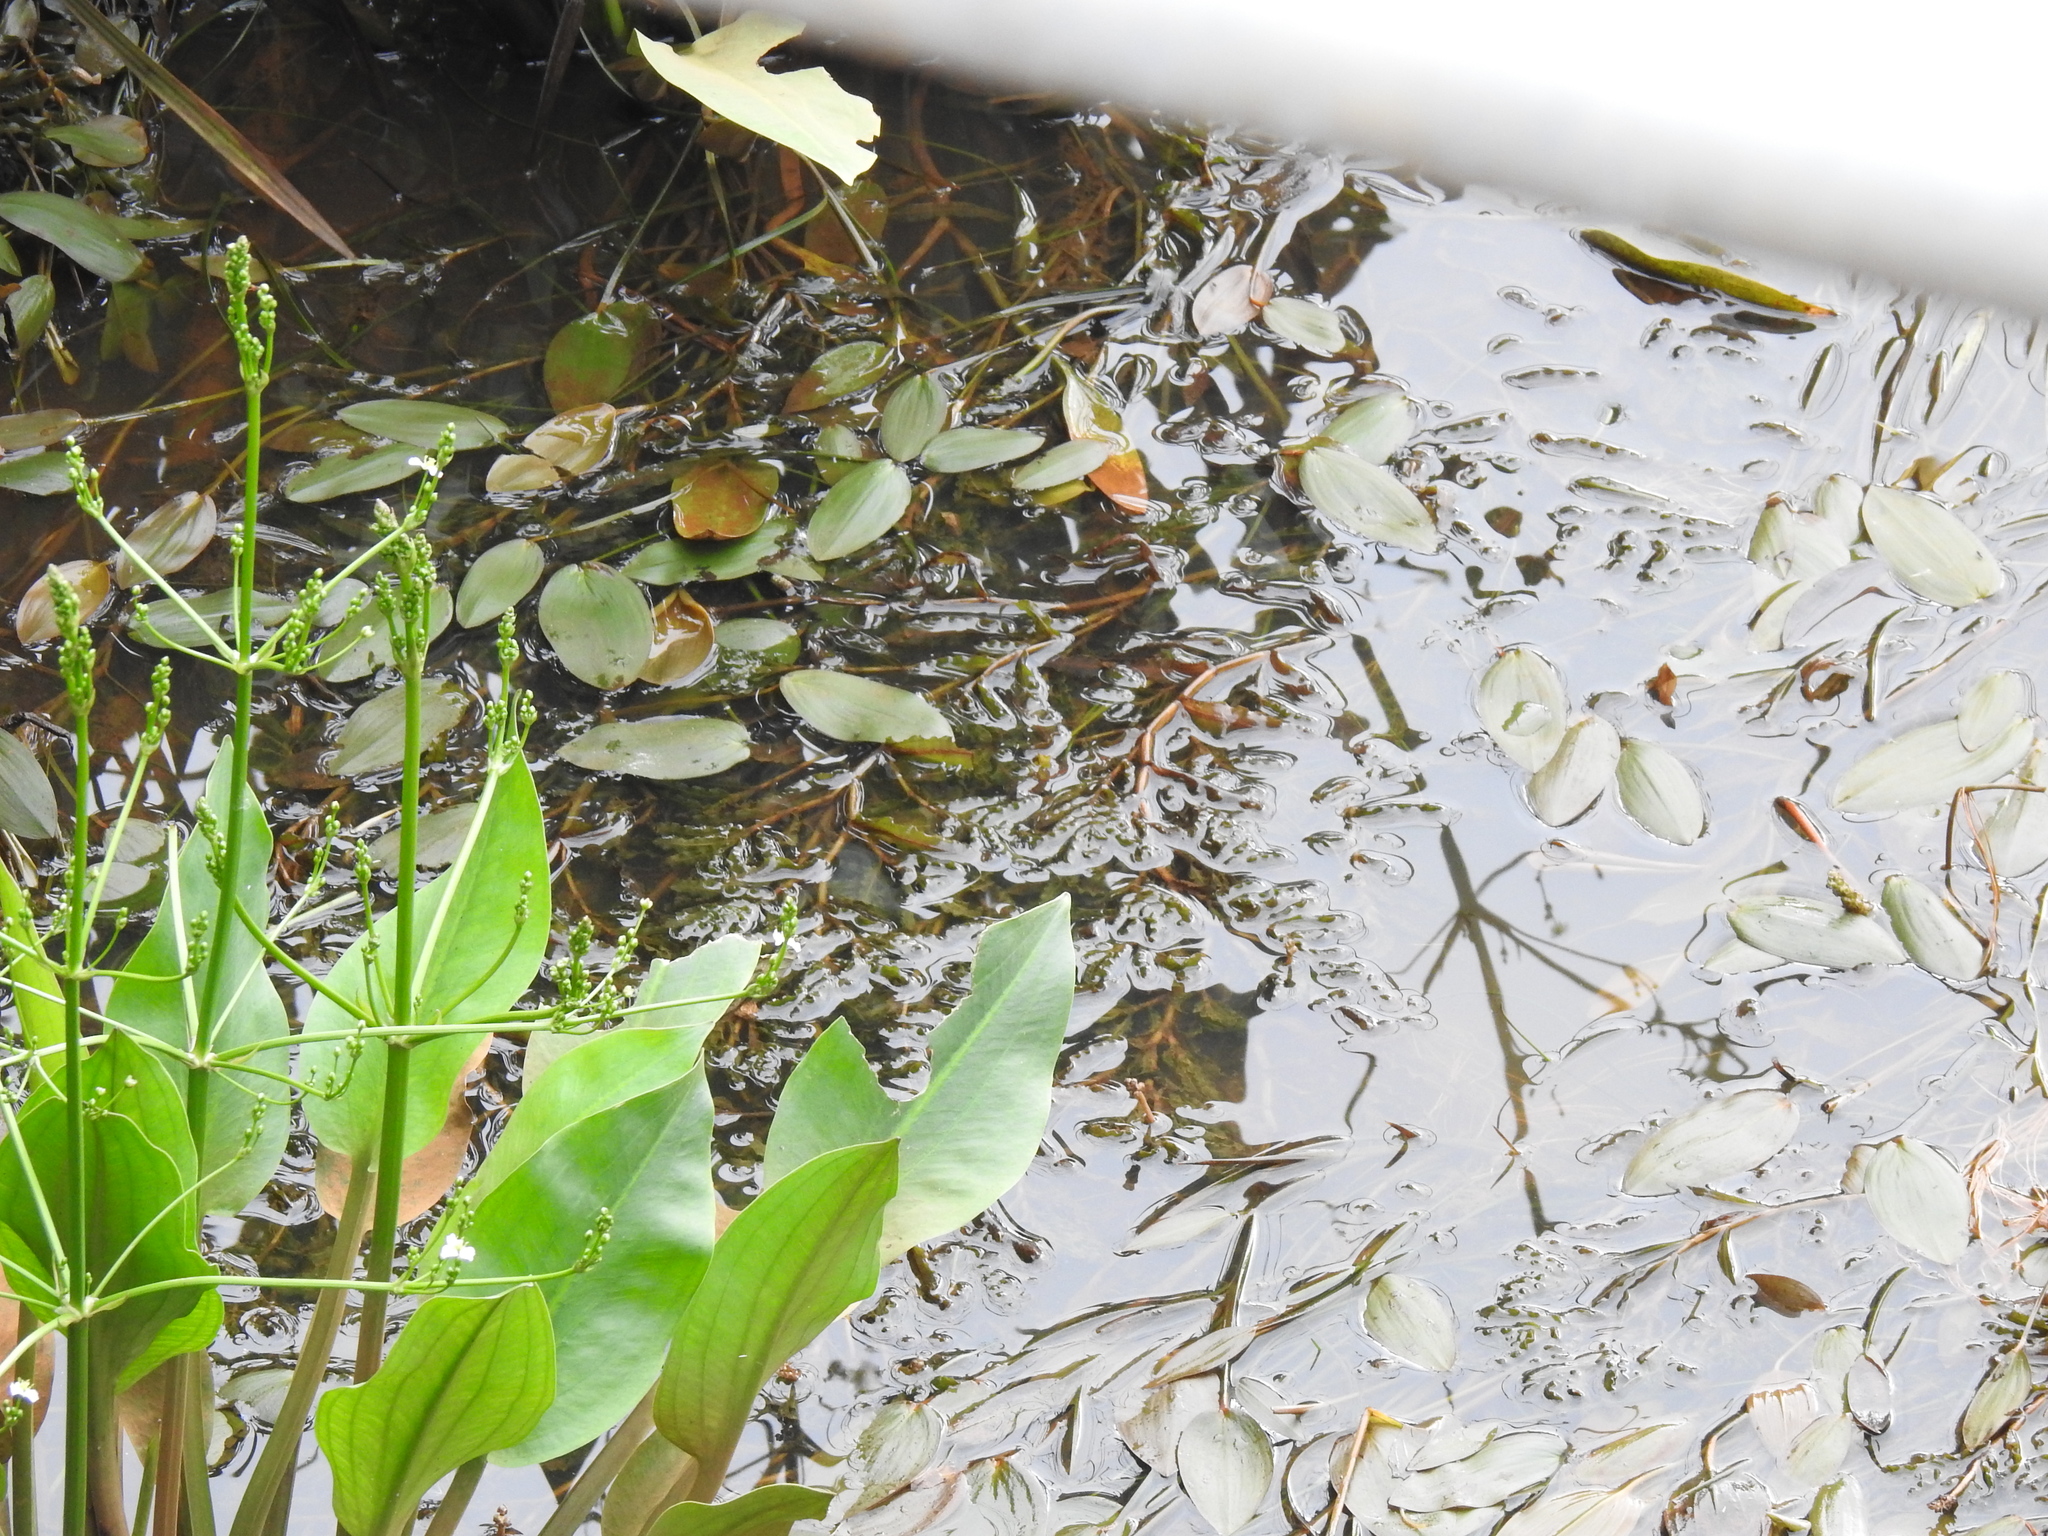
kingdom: Plantae
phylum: Tracheophyta
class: Liliopsida
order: Alismatales
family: Potamogetonaceae
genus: Potamogeton
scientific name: Potamogeton natans
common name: Broad-leaved pondweed
